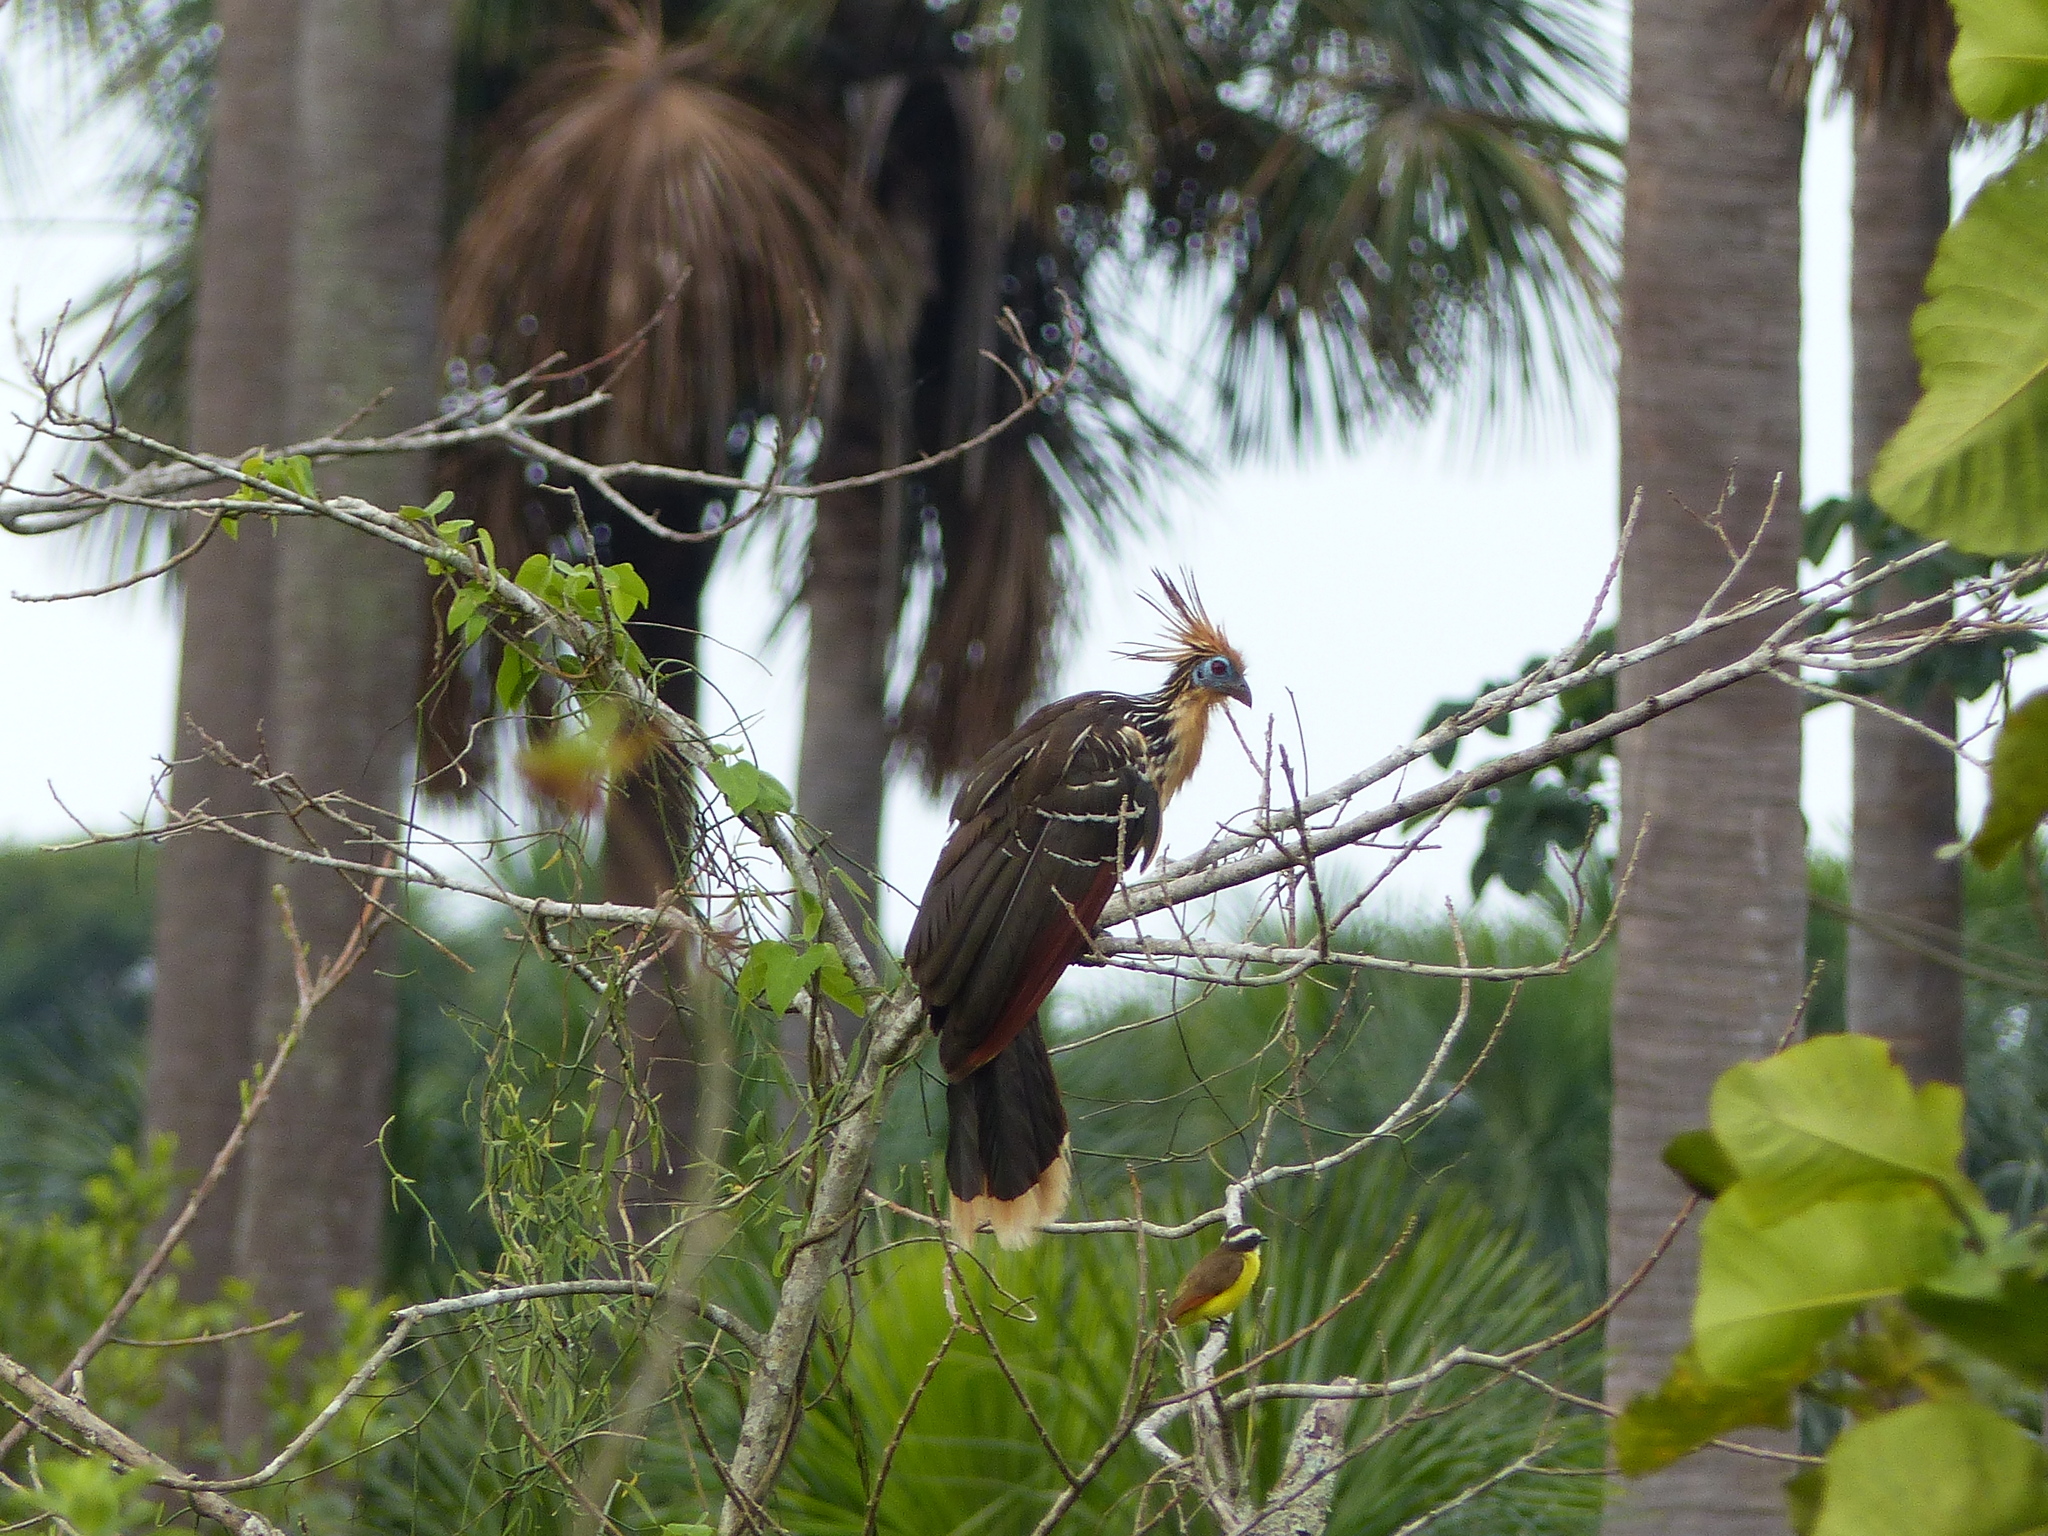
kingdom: Animalia
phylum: Chordata
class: Aves
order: Opisthocomiformes
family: Opisthocomidae
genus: Opisthocomus
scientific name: Opisthocomus hoazin
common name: Hoatzin
